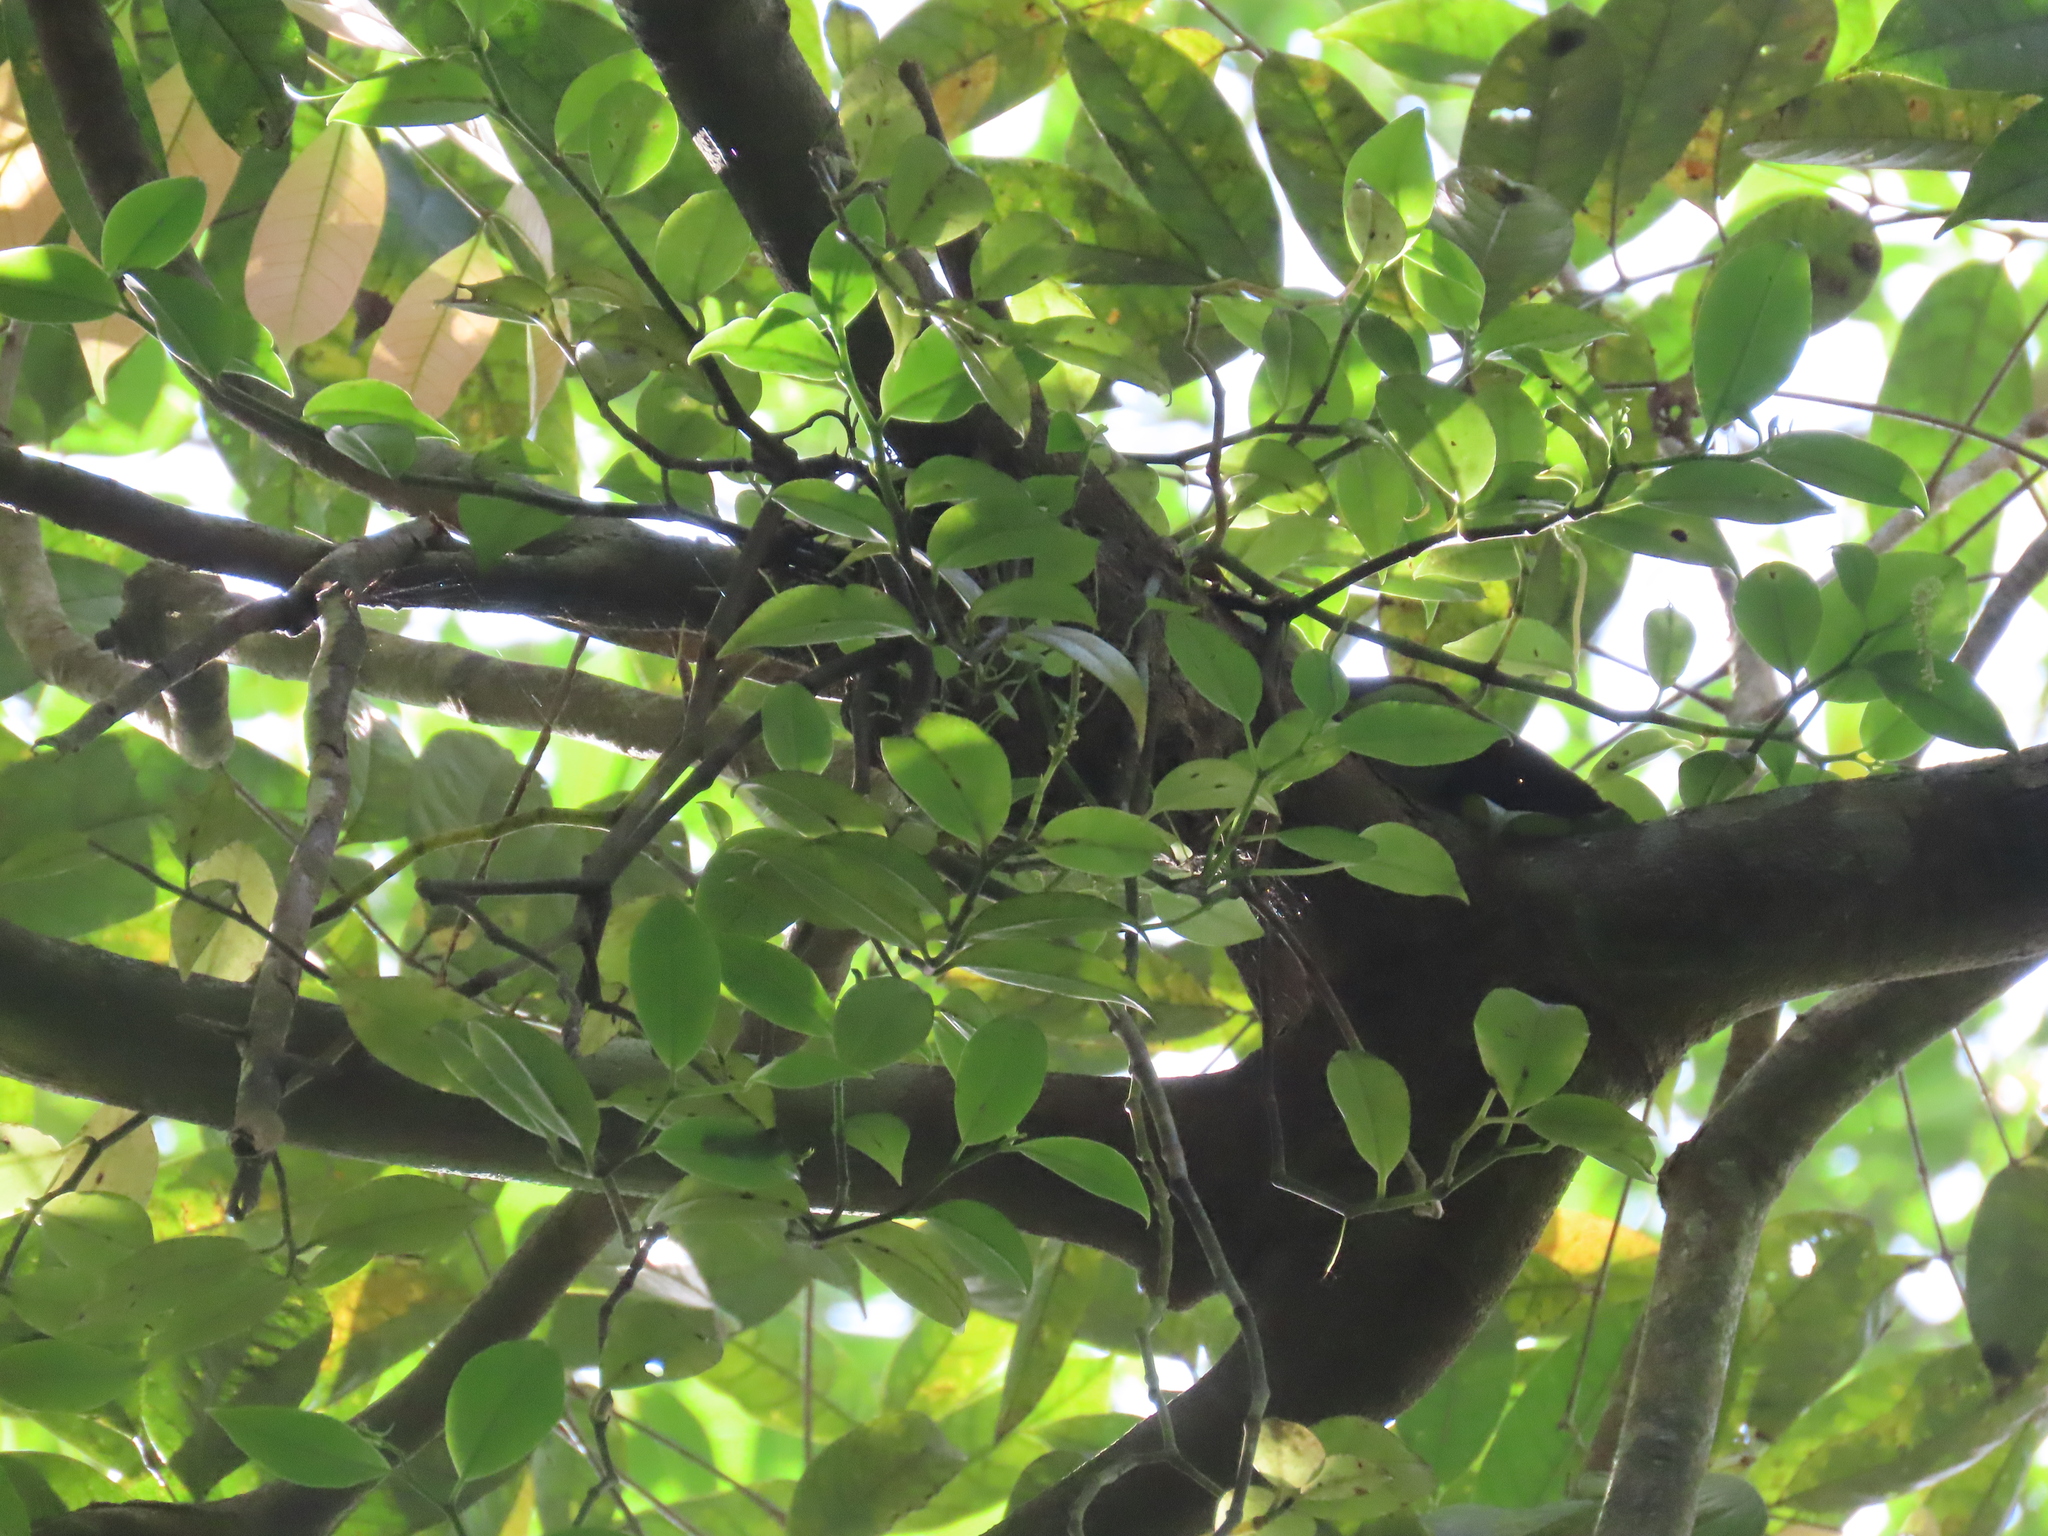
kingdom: Plantae
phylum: Tracheophyta
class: Magnoliopsida
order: Piperales
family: Piperaceae
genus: Peperomia
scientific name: Peperomia macrostachyos
